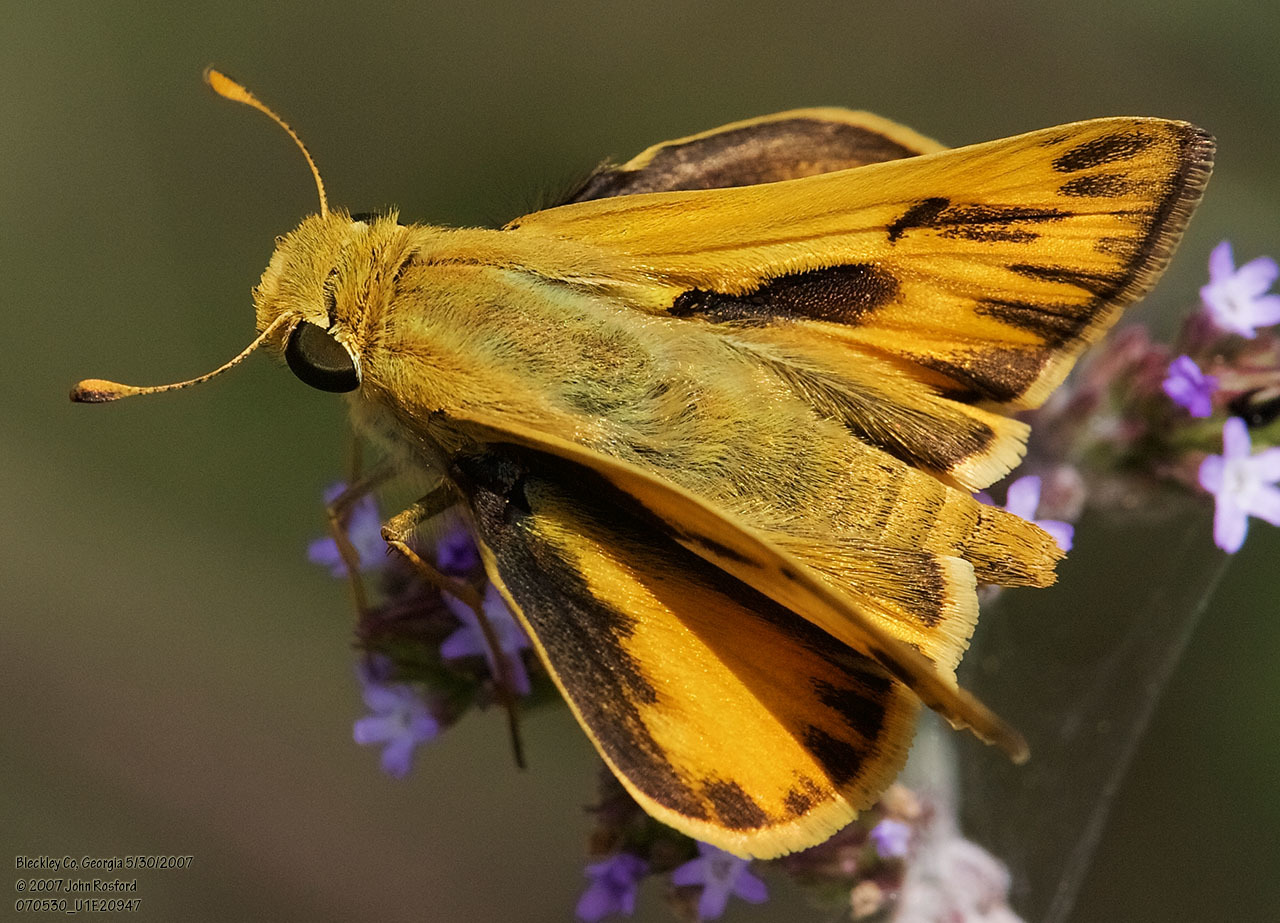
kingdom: Animalia
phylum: Arthropoda
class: Insecta
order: Lepidoptera
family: Hesperiidae
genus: Hylephila
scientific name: Hylephila phyleus
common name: Fiery skipper
